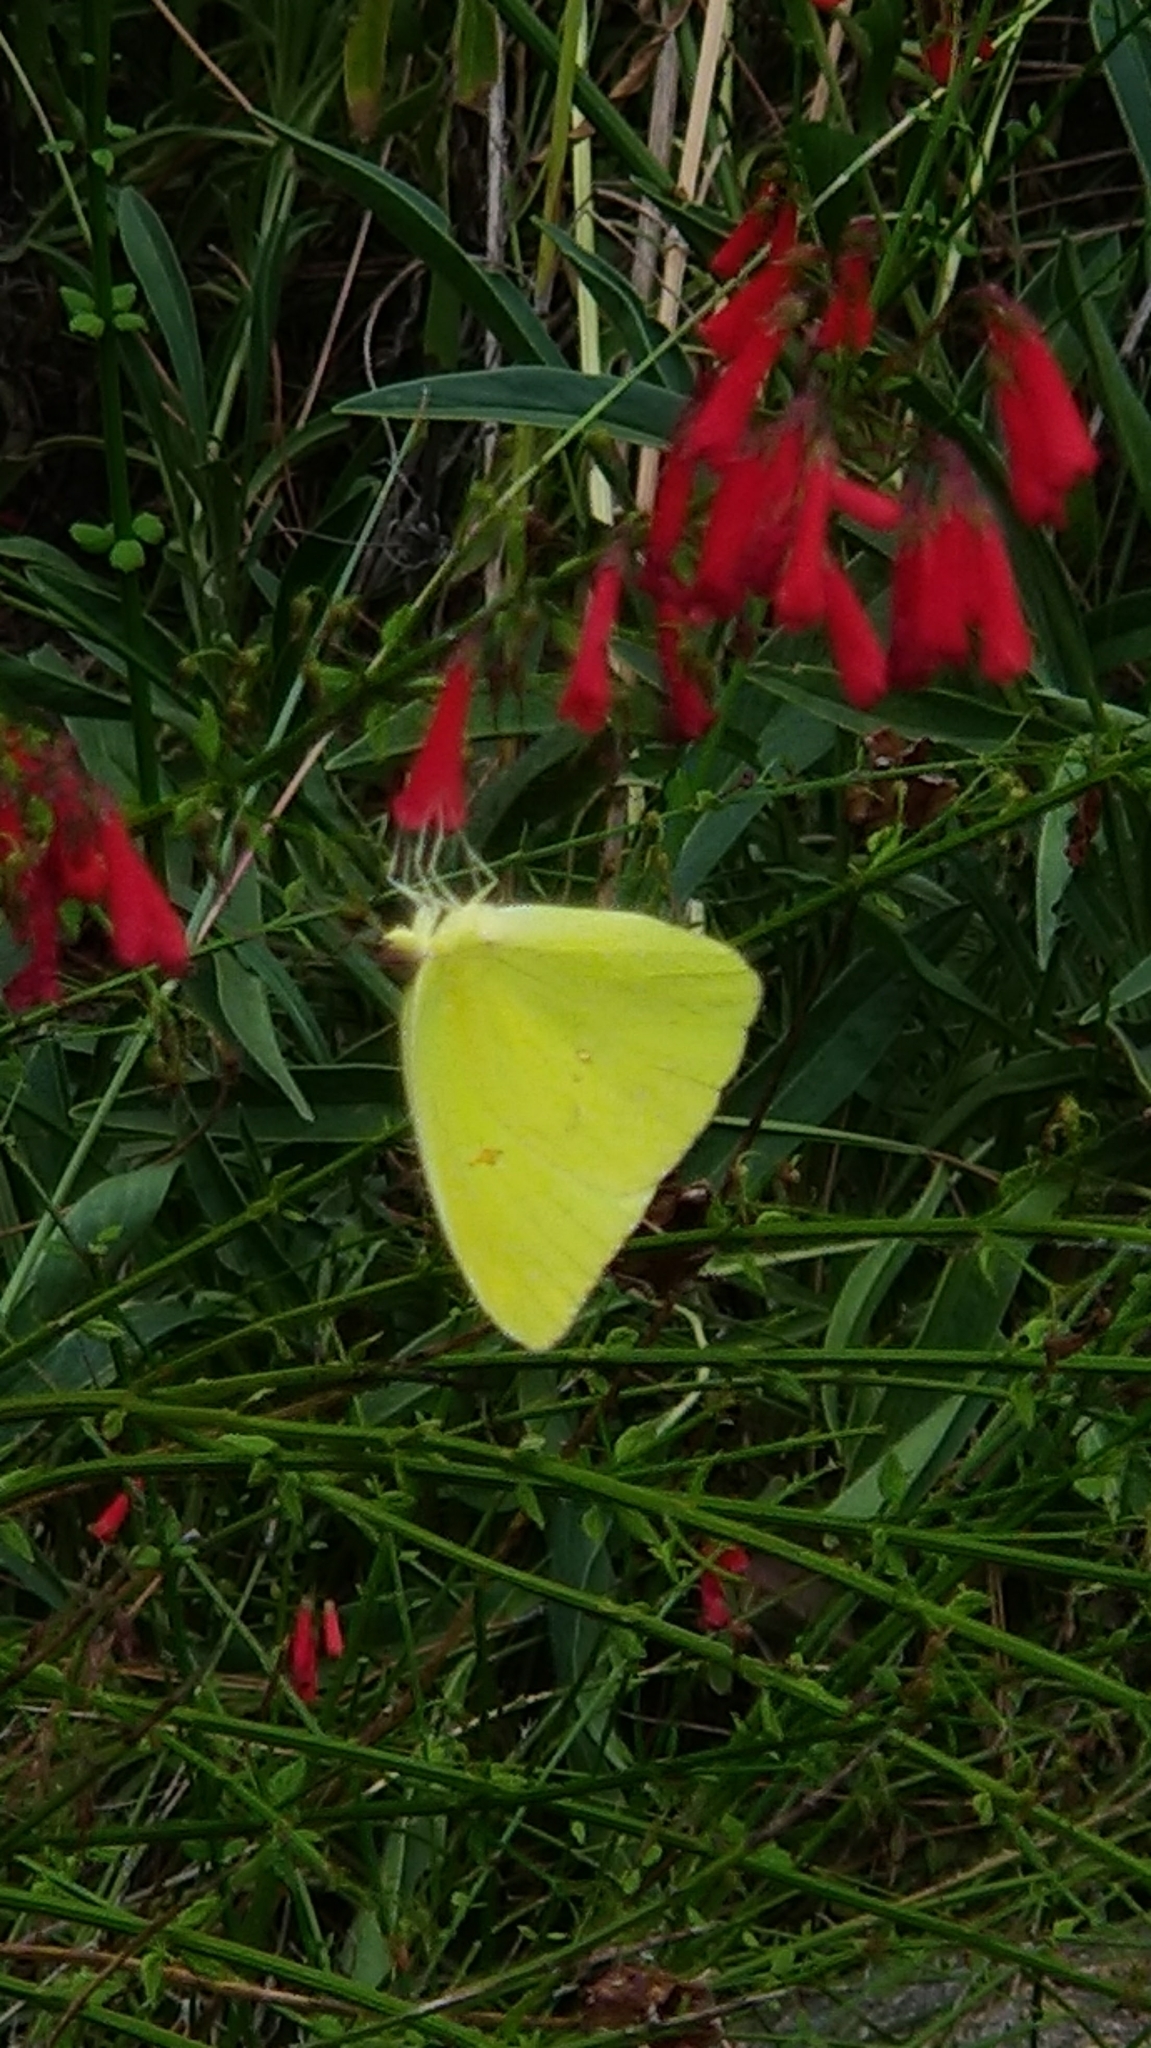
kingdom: Animalia
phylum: Arthropoda
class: Insecta
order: Lepidoptera
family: Pieridae
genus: Phoebis
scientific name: Phoebis sennae
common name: Cloudless sulphur
